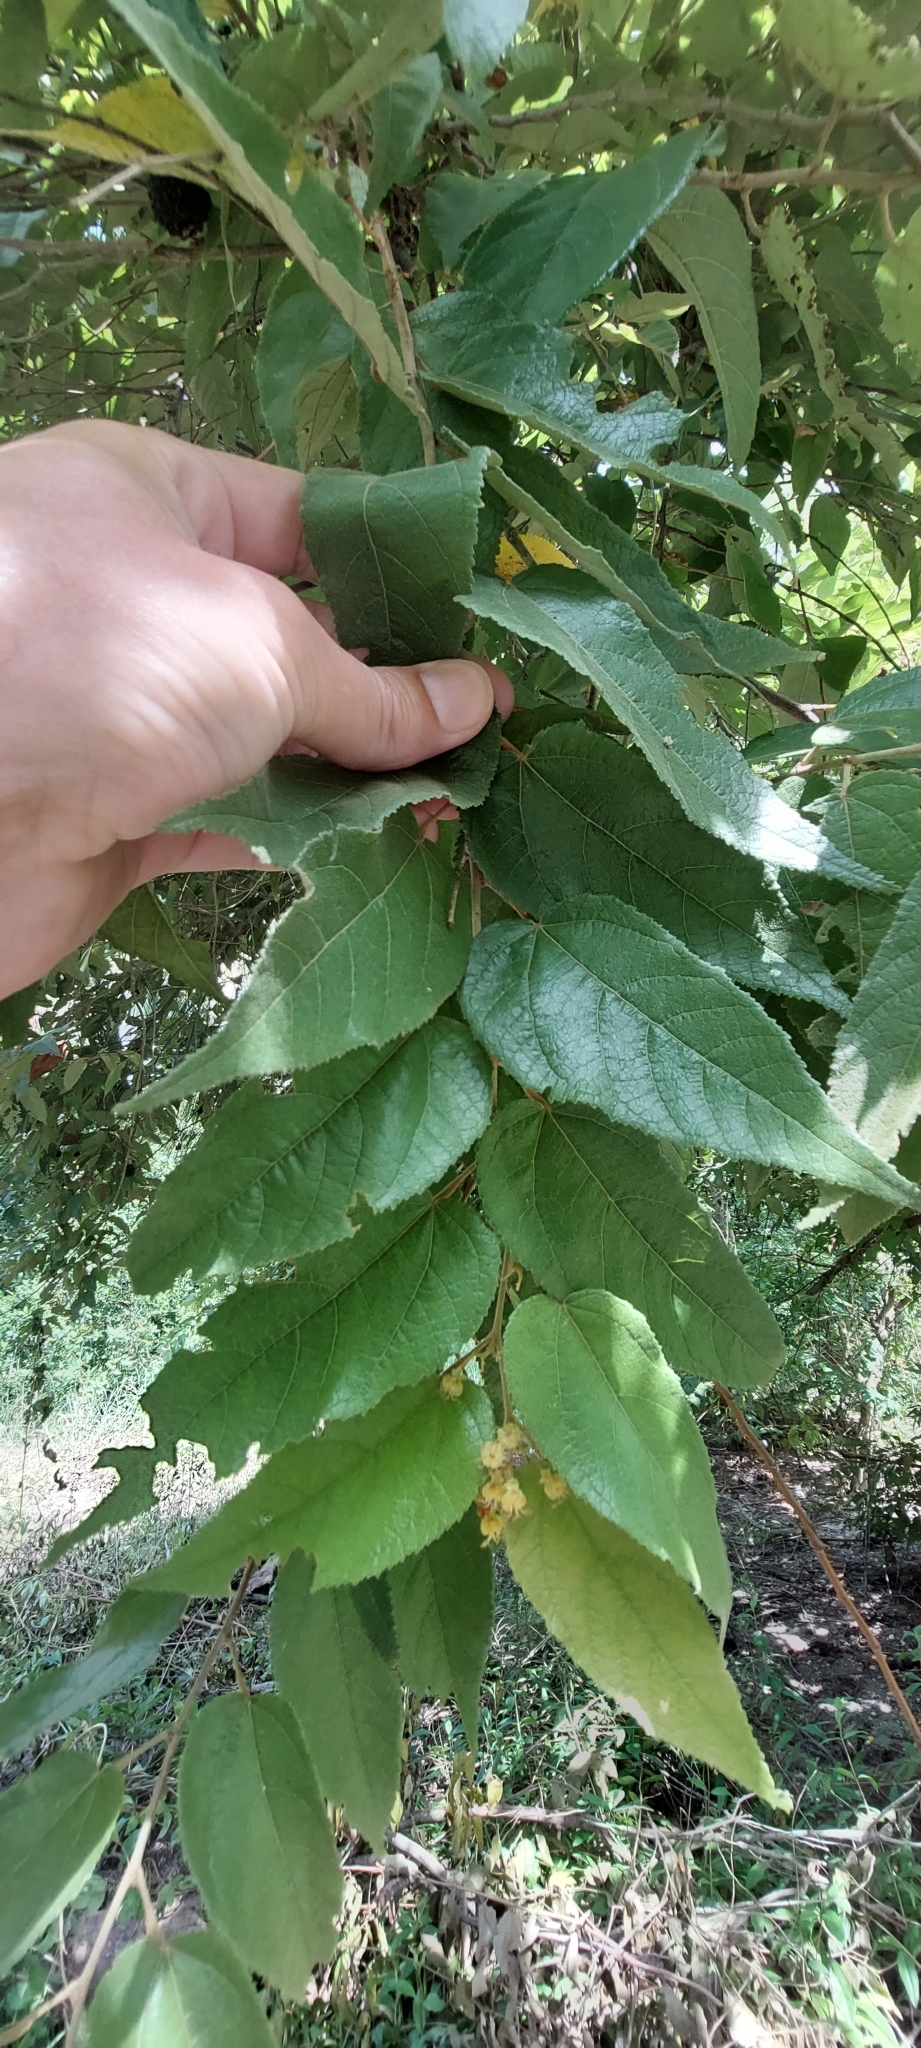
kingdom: Plantae
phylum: Tracheophyta
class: Magnoliopsida
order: Malvales
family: Malvaceae
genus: Guazuma
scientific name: Guazuma ulmifolia
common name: Bastard-cedar
